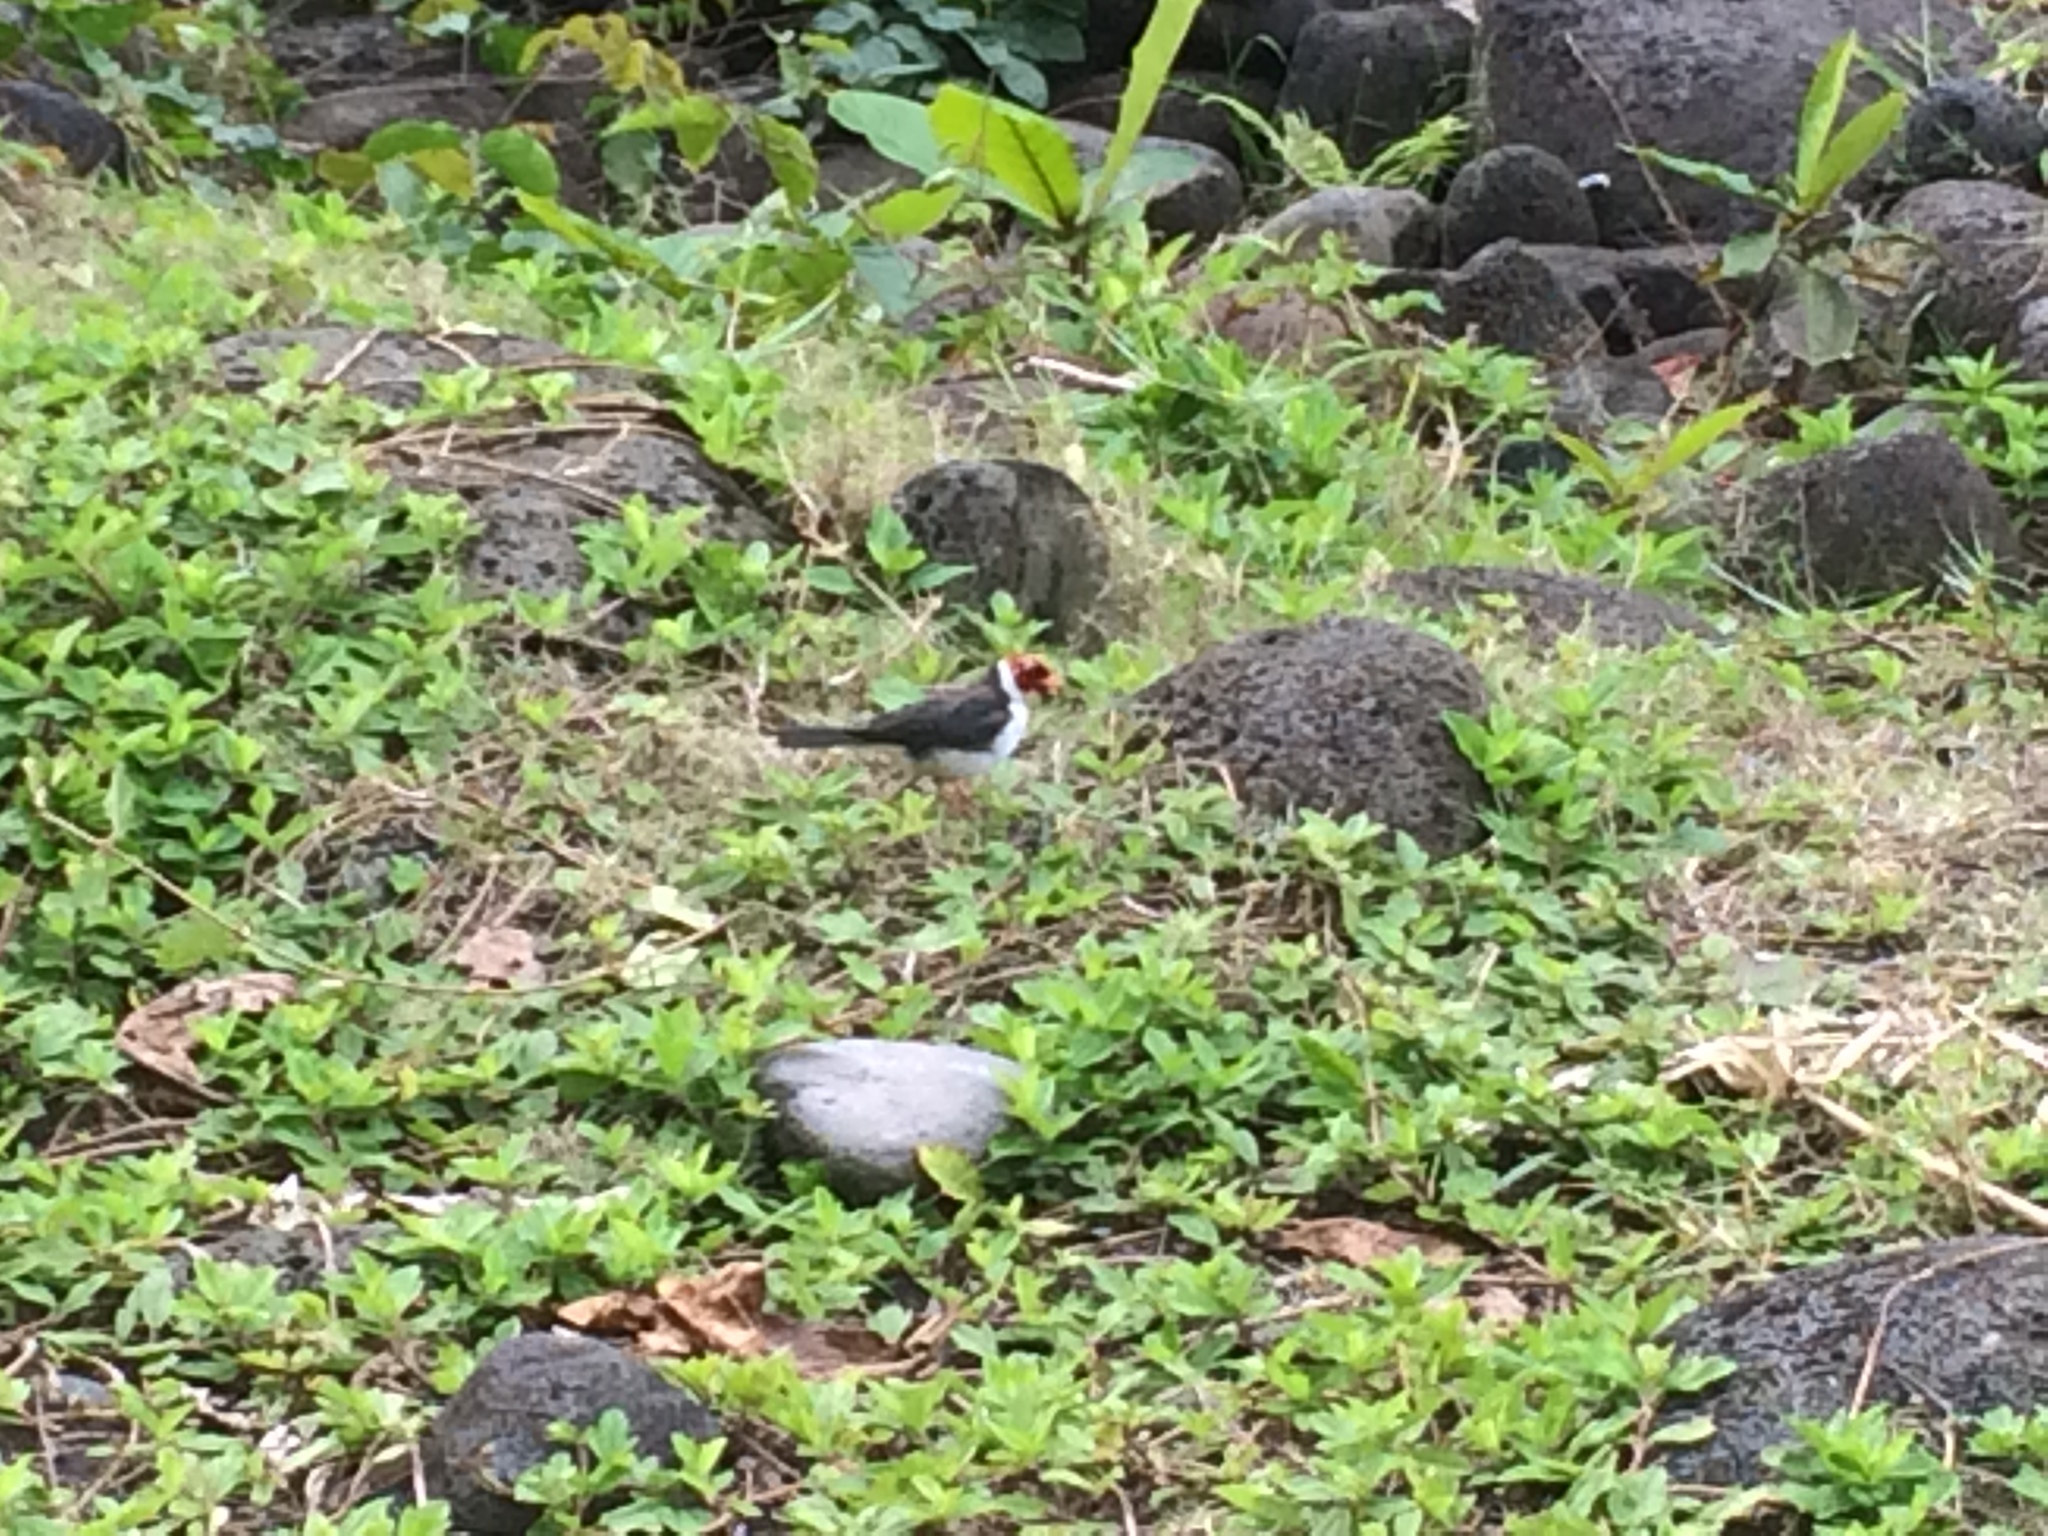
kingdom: Animalia
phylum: Chordata
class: Aves
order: Passeriformes
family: Thraupidae
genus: Paroaria
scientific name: Paroaria capitata
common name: Yellow-billed cardinal
